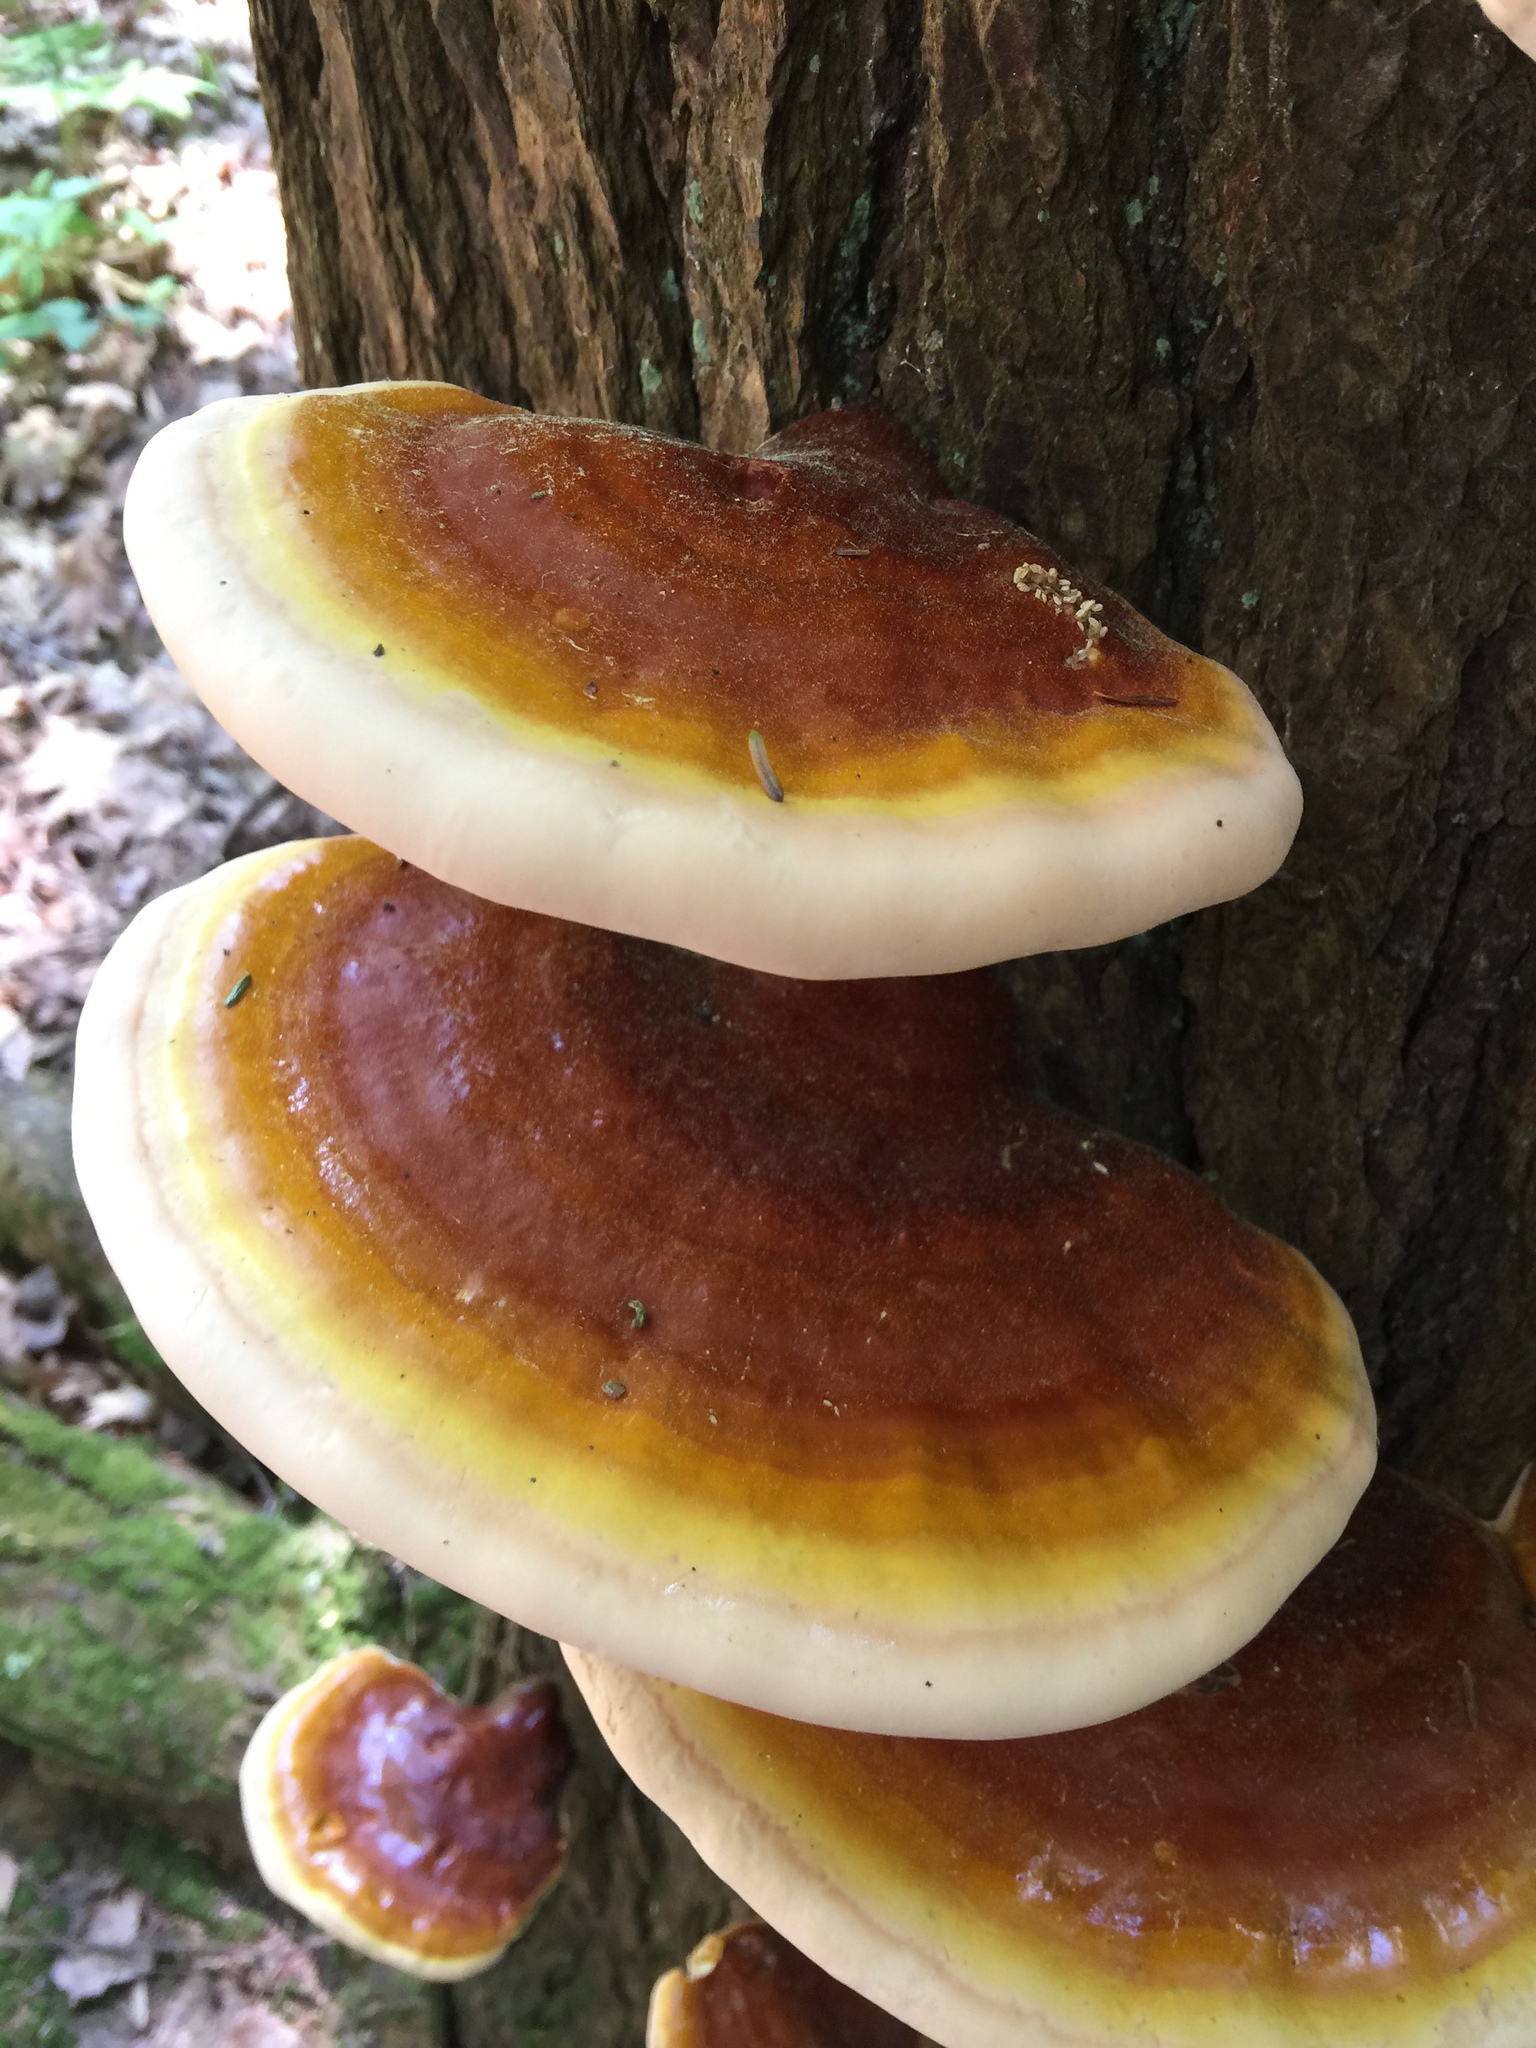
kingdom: Fungi
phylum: Basidiomycota
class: Agaricomycetes
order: Polyporales
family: Polyporaceae
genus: Ganoderma
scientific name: Ganoderma tsugae
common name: Hemlock varnish shelf
